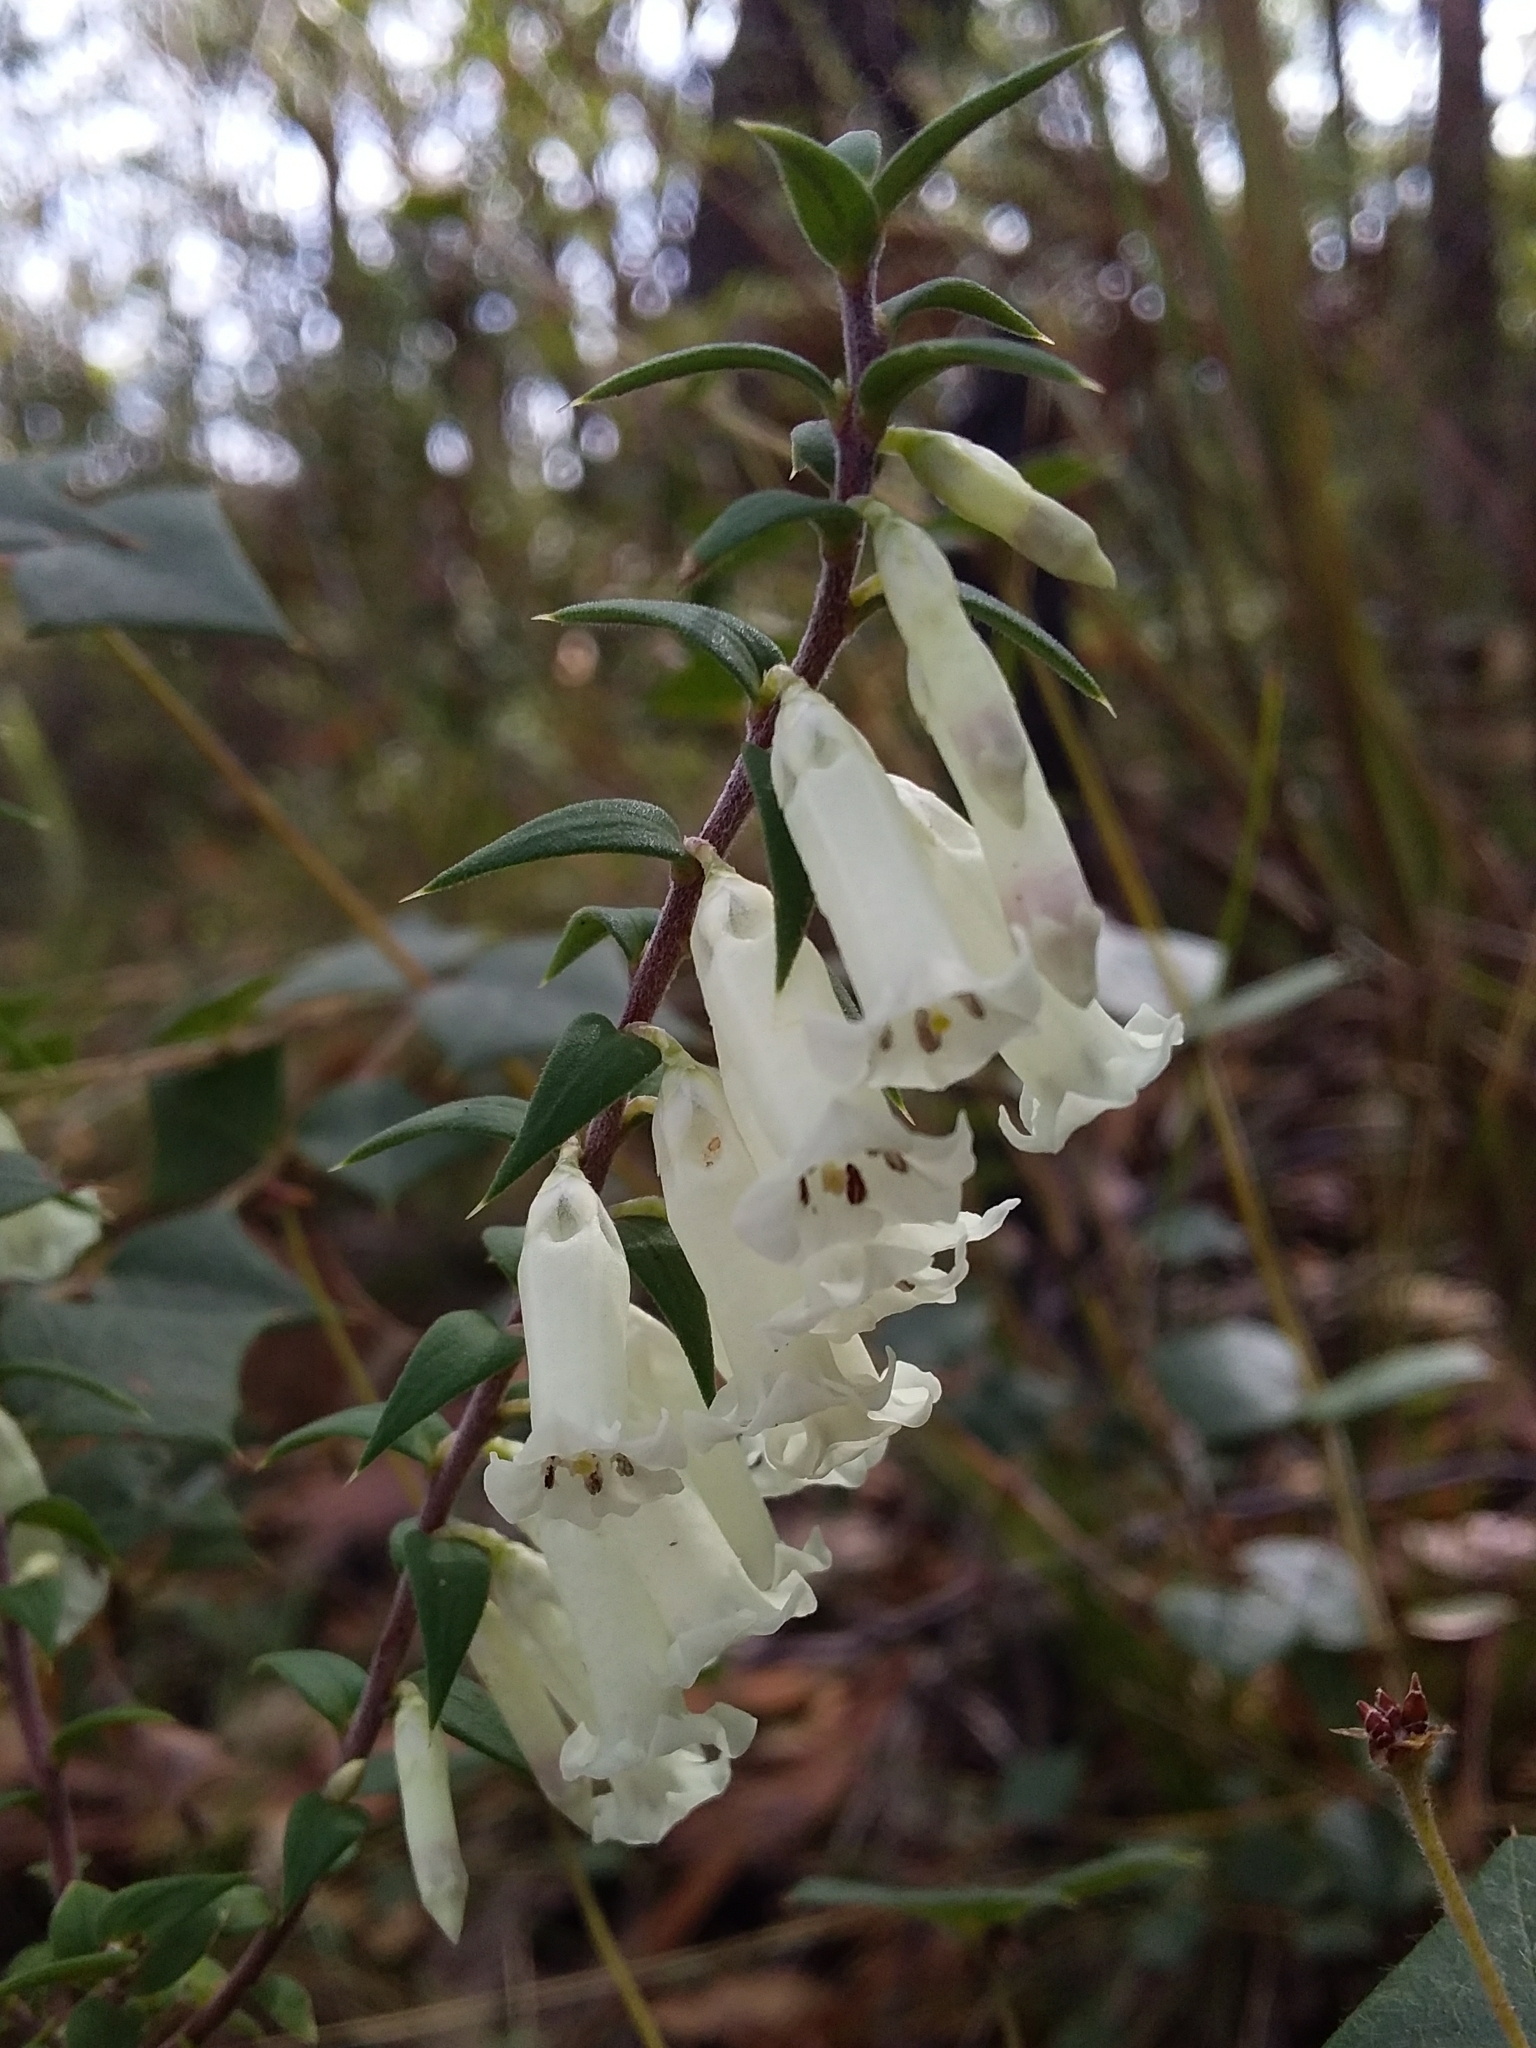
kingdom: Plantae
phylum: Tracheophyta
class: Magnoliopsida
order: Ericales
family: Ericaceae
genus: Epacris
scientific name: Epacris impressa
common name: Common-heath
